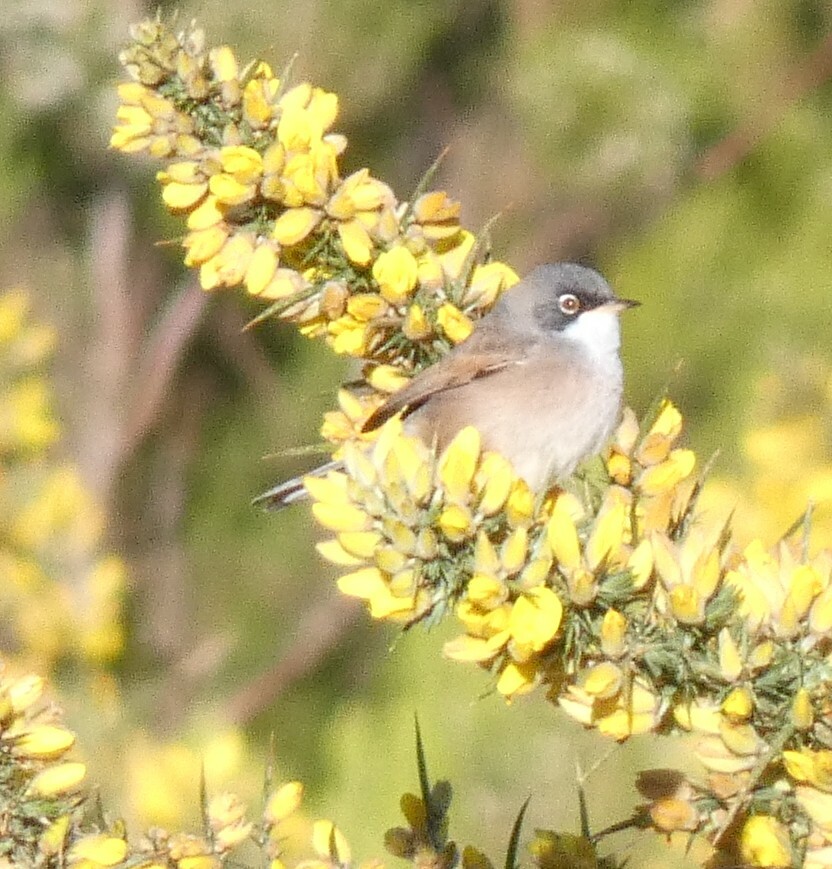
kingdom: Animalia
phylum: Chordata
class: Aves
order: Passeriformes
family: Sylviidae
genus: Sylvia
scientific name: Sylvia conspicillata
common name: Spectacled warbler
